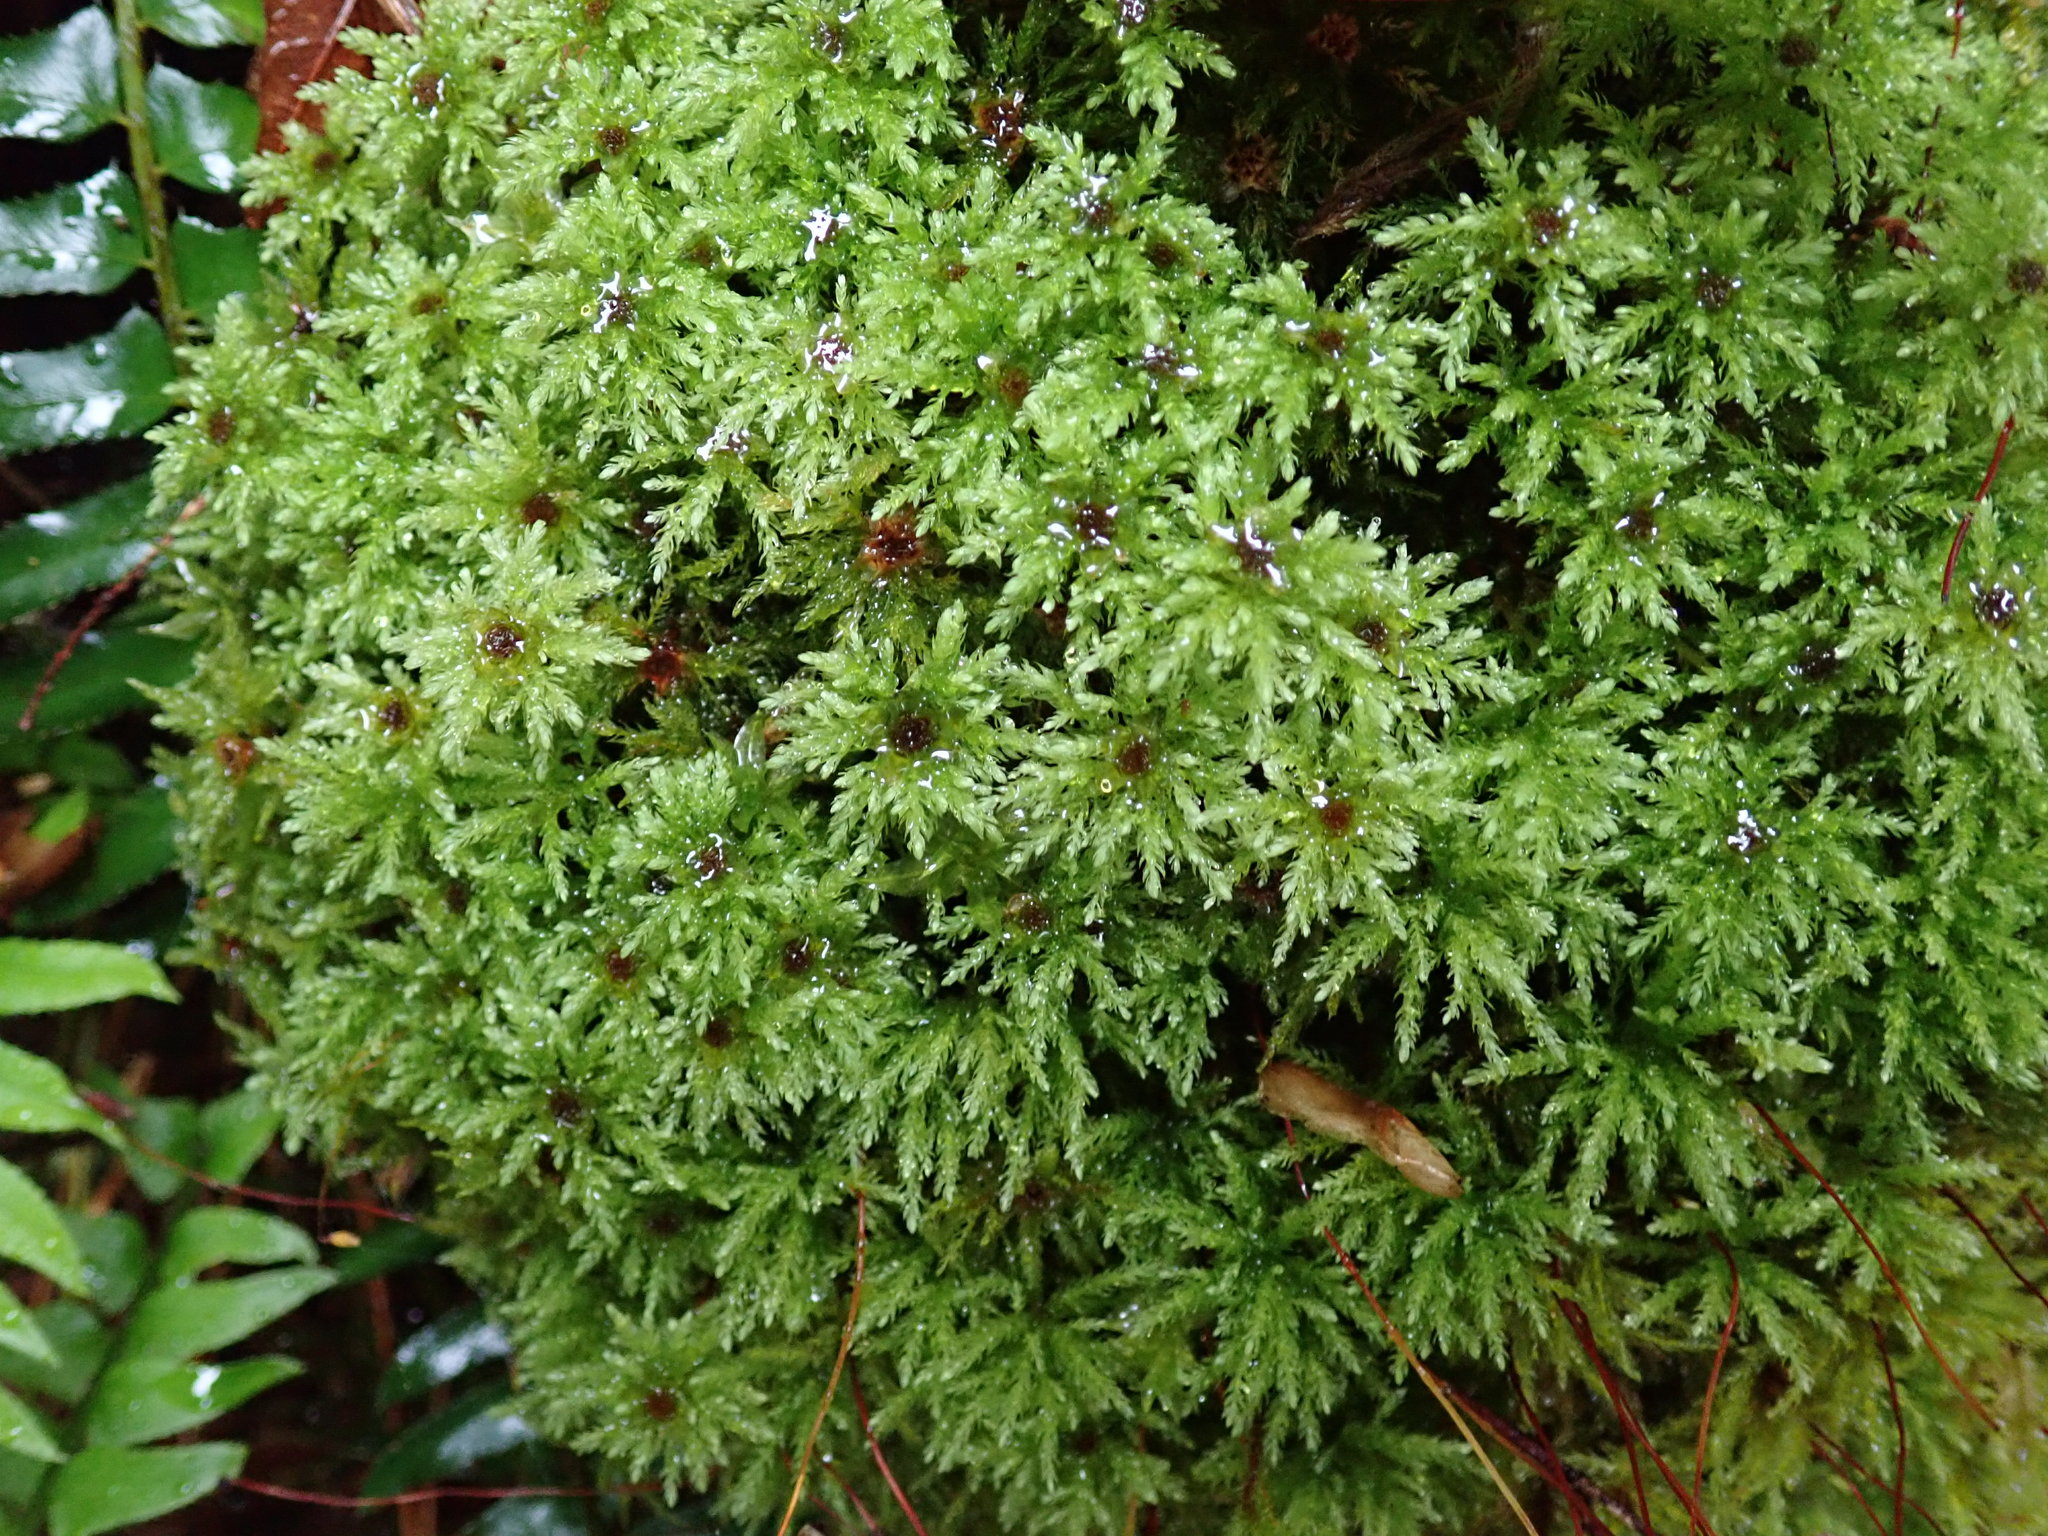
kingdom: Plantae
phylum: Bryophyta
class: Bryopsida
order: Bryales
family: Mniaceae
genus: Leucolepis
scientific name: Leucolepis acanthoneura
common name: Leucolepis umbrella moss
